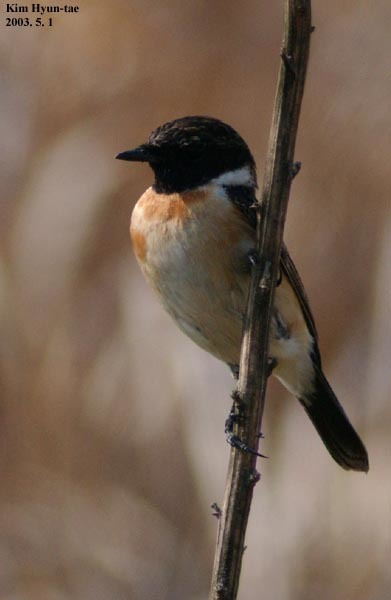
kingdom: Animalia
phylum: Chordata
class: Aves
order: Passeriformes
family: Muscicapidae
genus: Saxicola
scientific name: Saxicola stejnegeri
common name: Stejneger's stonechat
